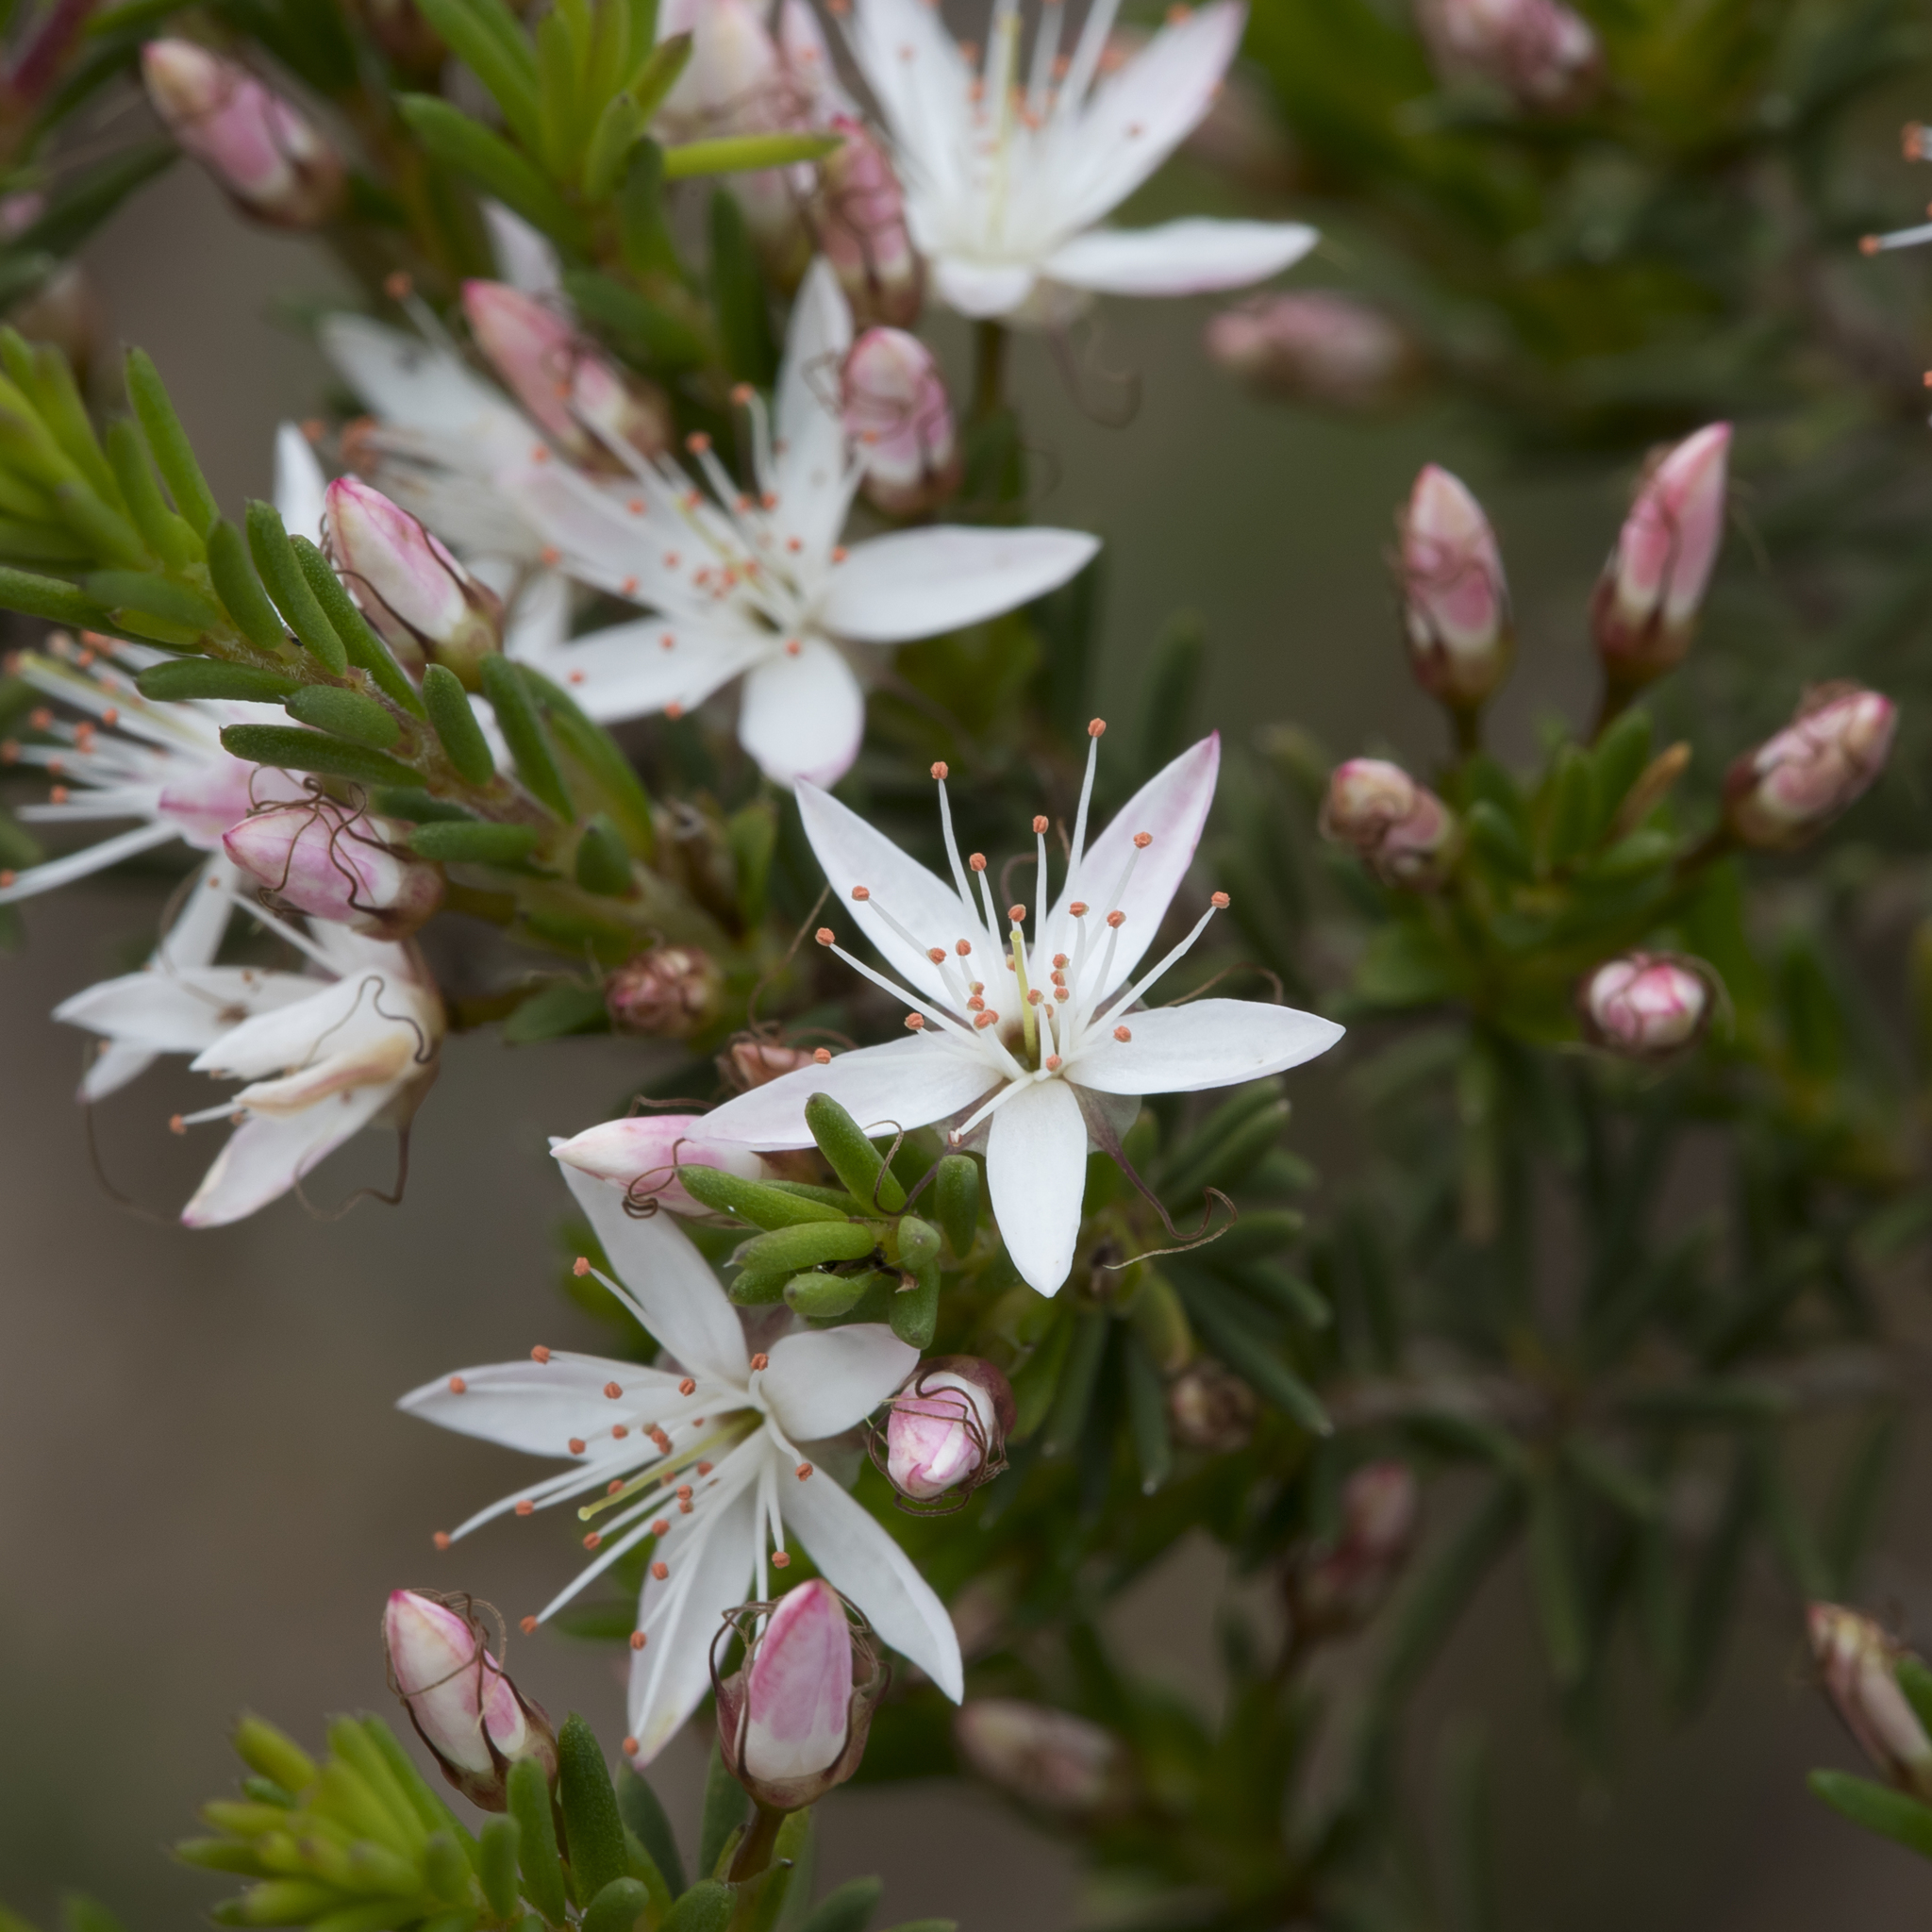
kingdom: Plantae
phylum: Tracheophyta
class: Magnoliopsida
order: Myrtales
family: Myrtaceae
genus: Calytrix
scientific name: Calytrix tetragona
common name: Common fringe myrtle
